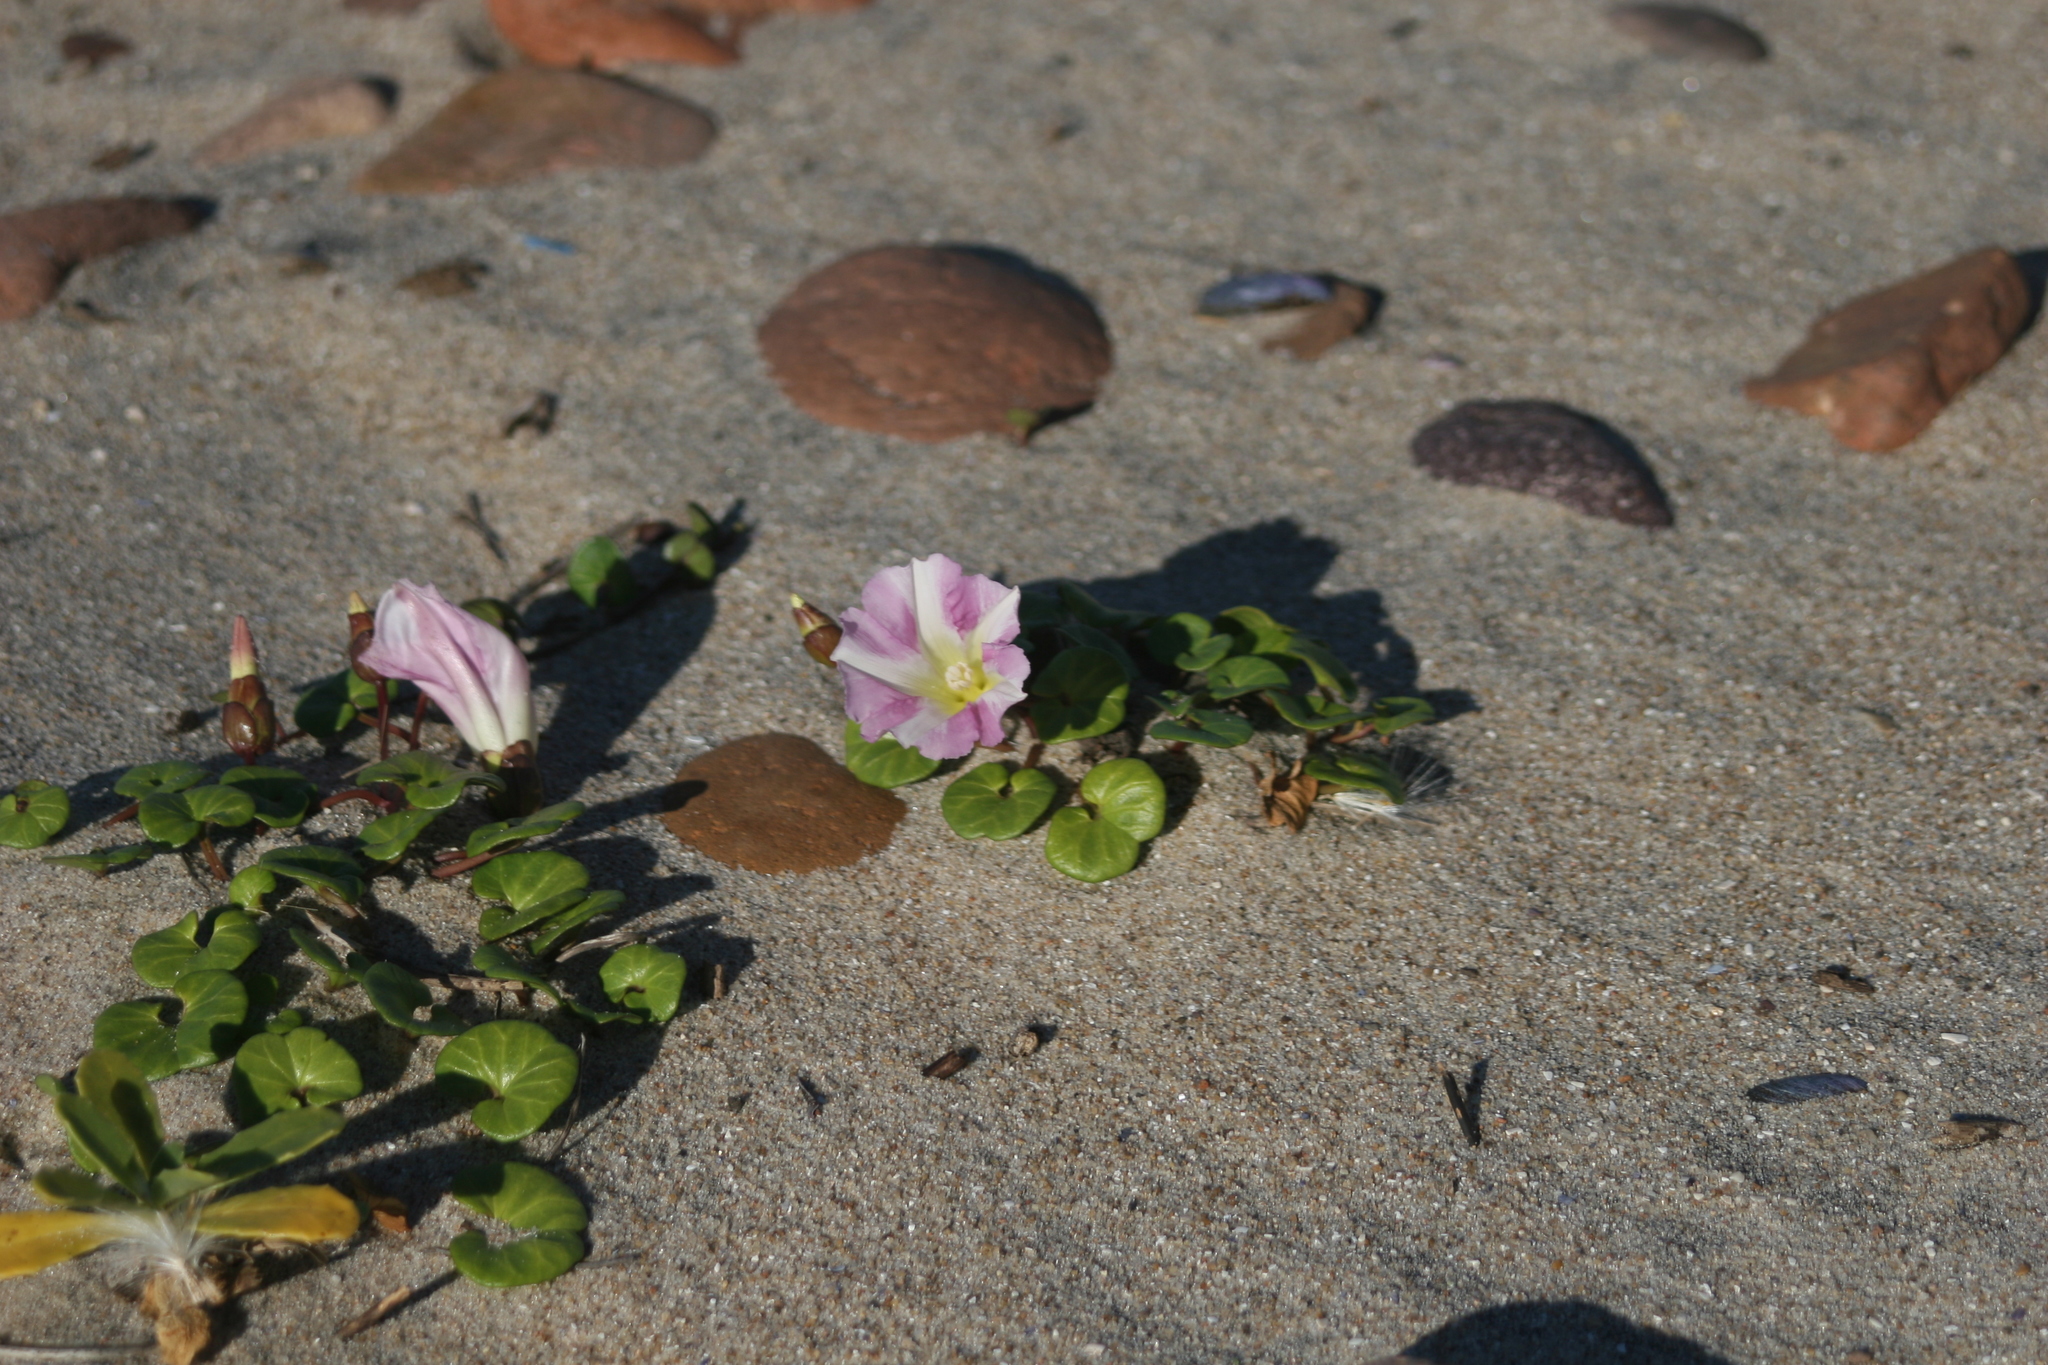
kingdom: Plantae
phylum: Tracheophyta
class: Magnoliopsida
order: Solanales
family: Convolvulaceae
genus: Calystegia
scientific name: Calystegia soldanella
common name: Sea bindweed
